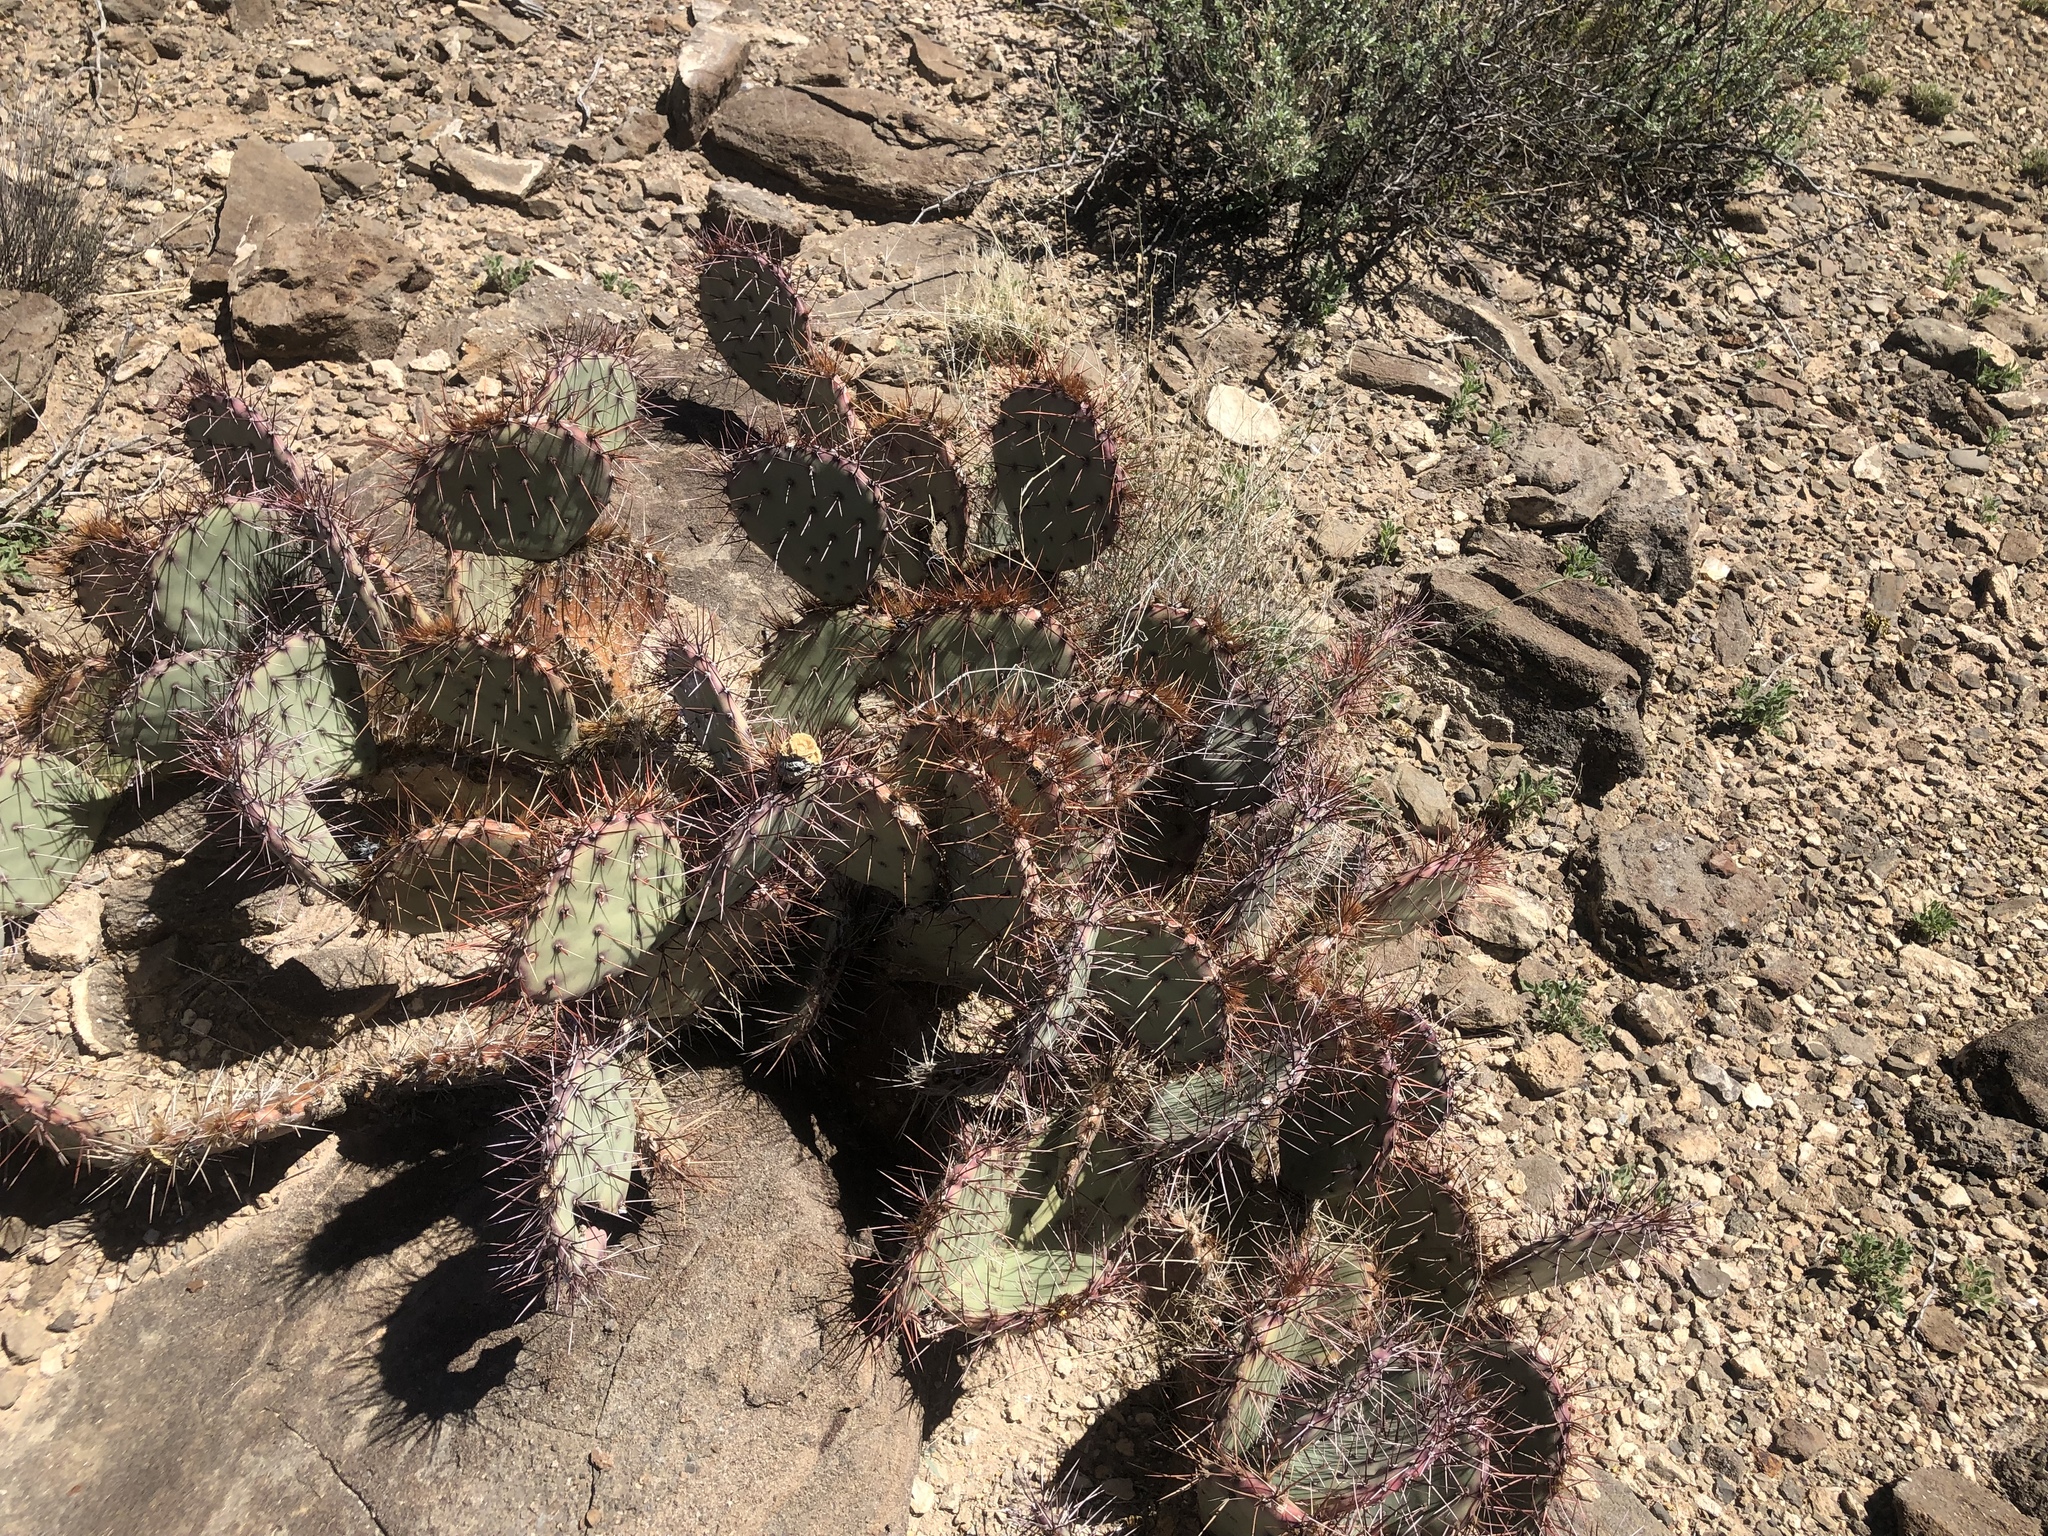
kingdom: Plantae
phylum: Tracheophyta
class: Magnoliopsida
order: Caryophyllales
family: Cactaceae
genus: Opuntia
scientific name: Opuntia macrocentra
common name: Purple prickly-pear
